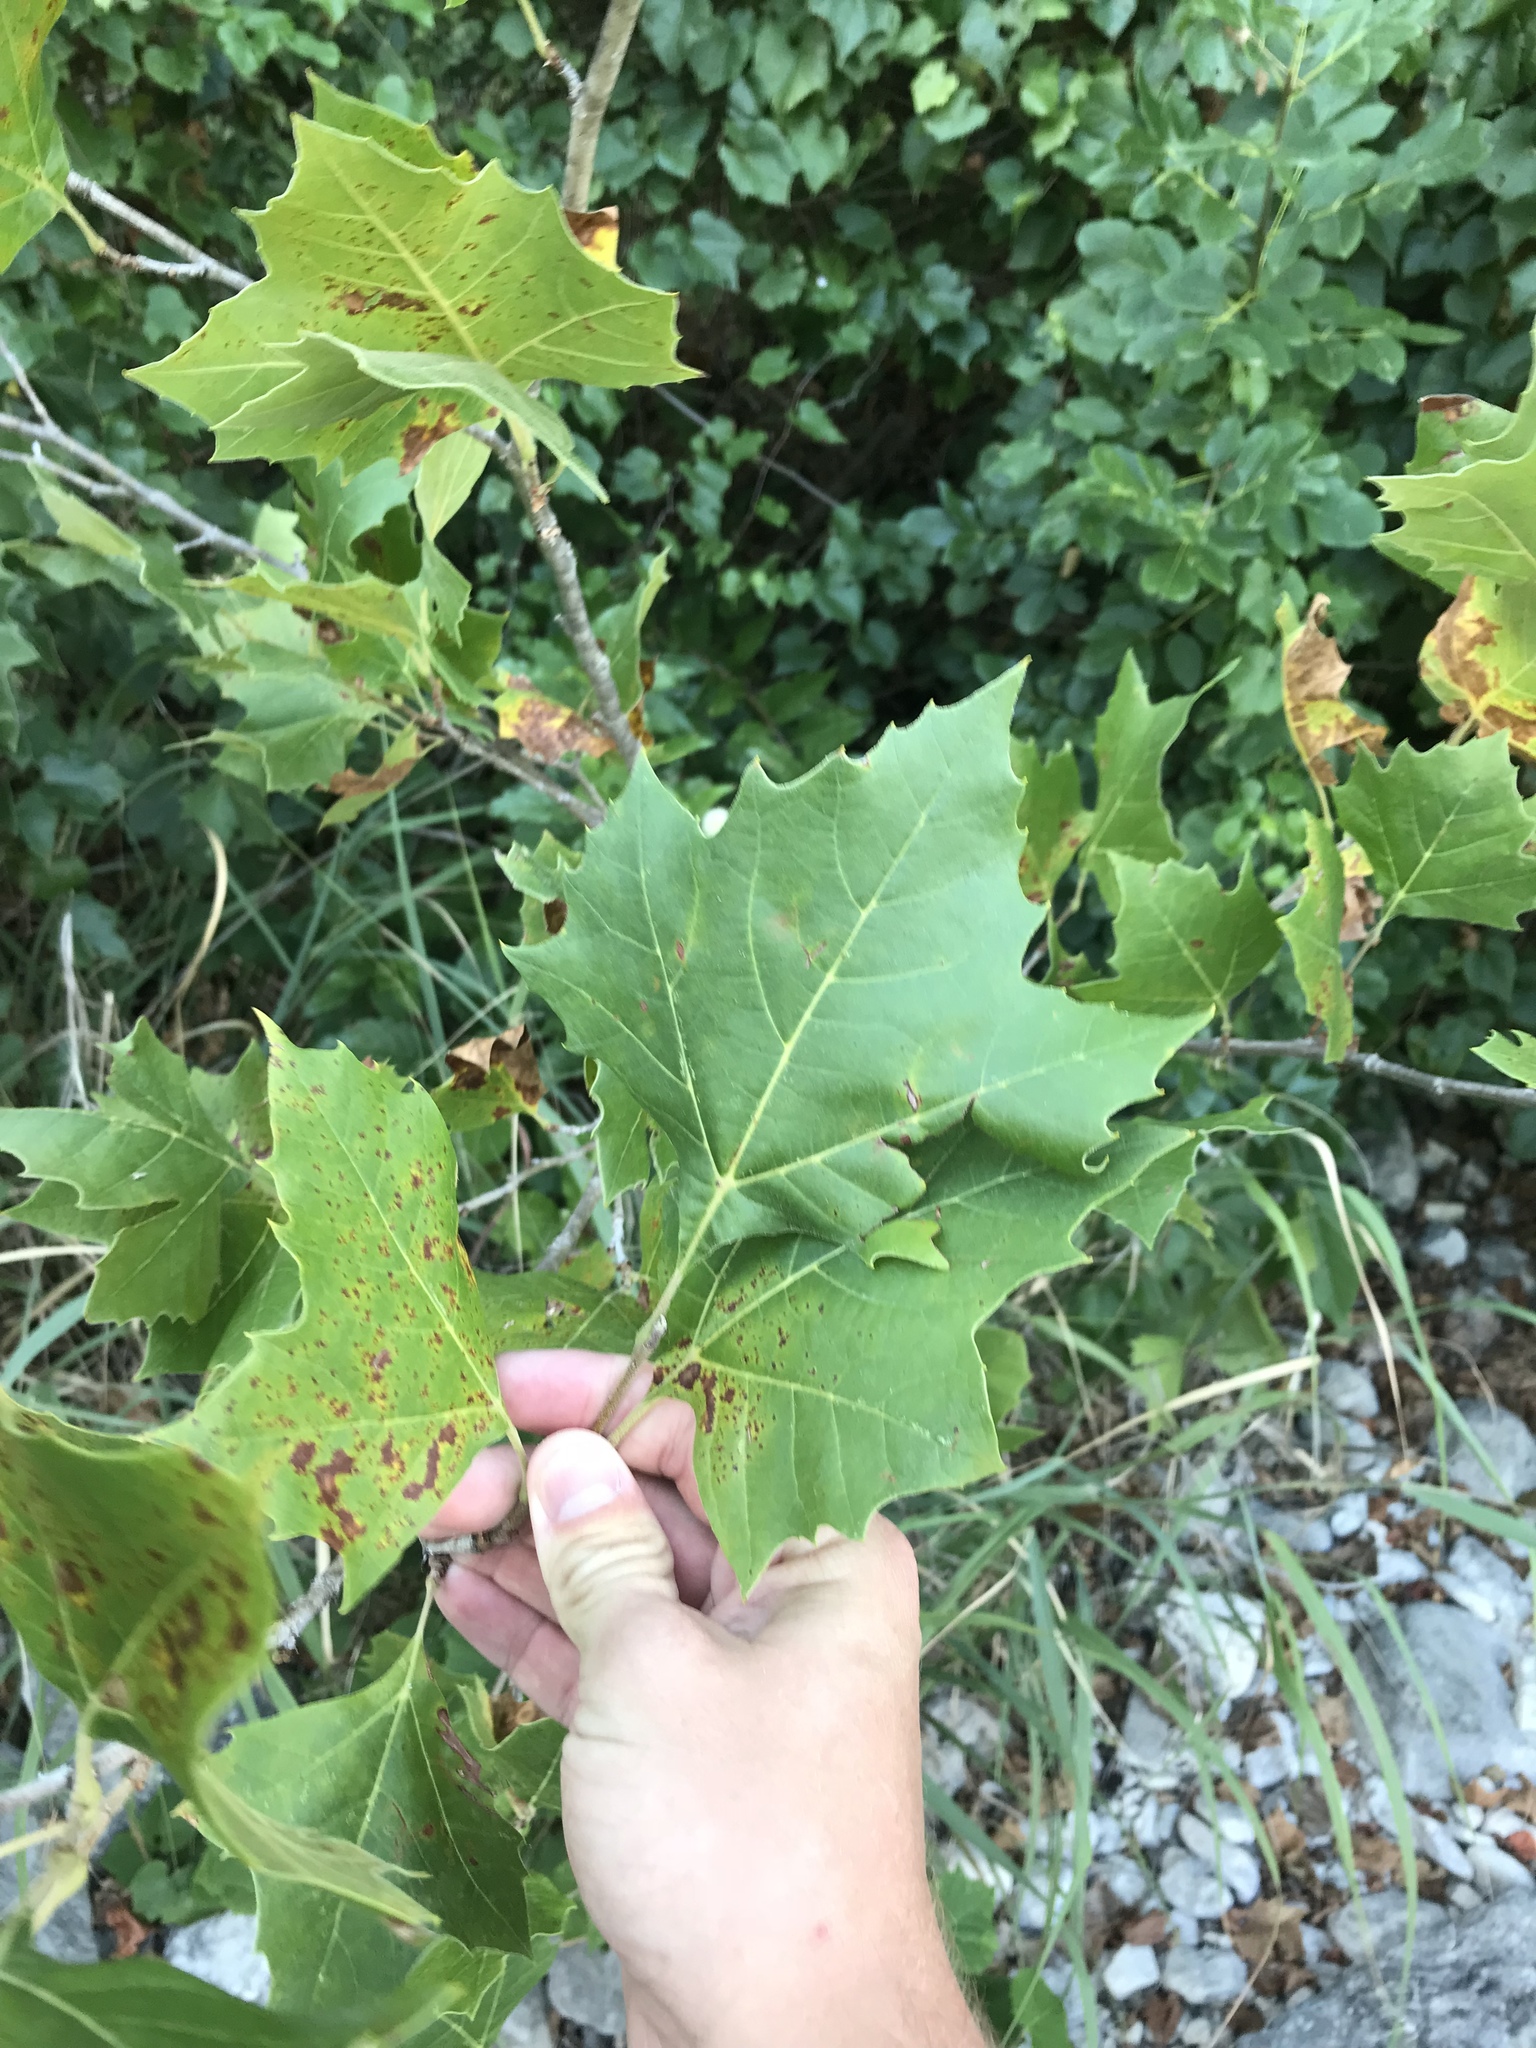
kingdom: Plantae
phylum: Tracheophyta
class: Magnoliopsida
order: Proteales
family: Platanaceae
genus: Platanus
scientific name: Platanus occidentalis
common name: American sycamore
